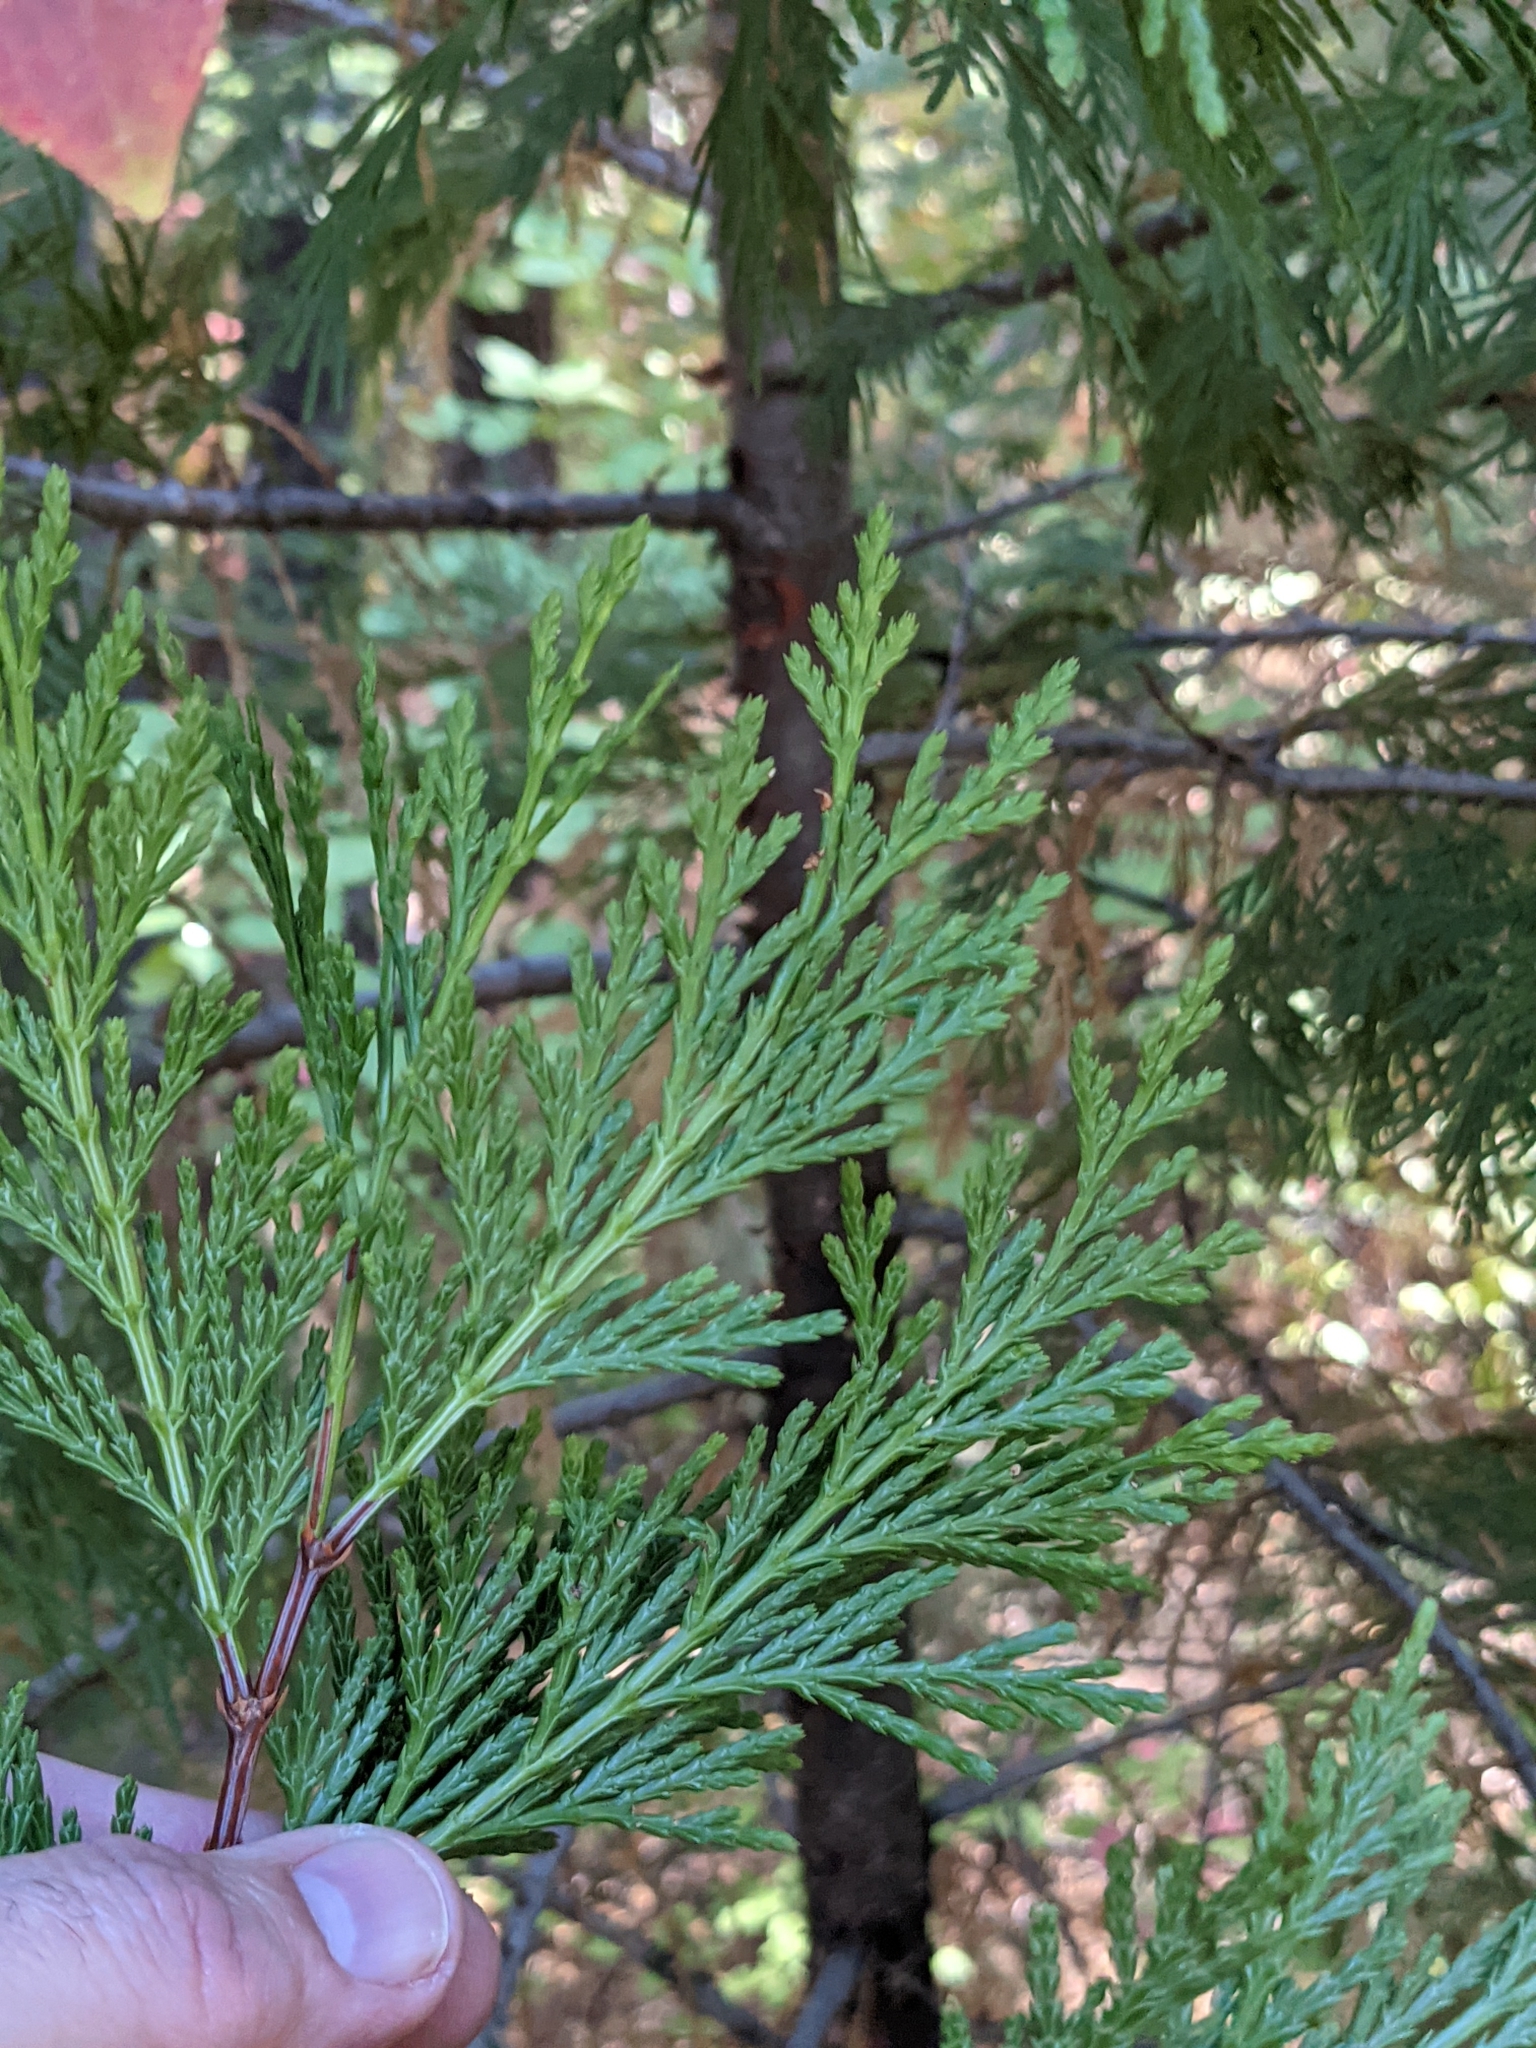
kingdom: Plantae
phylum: Tracheophyta
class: Pinopsida
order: Pinales
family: Cupressaceae
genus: Calocedrus
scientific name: Calocedrus decurrens
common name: Californian incense-cedar
